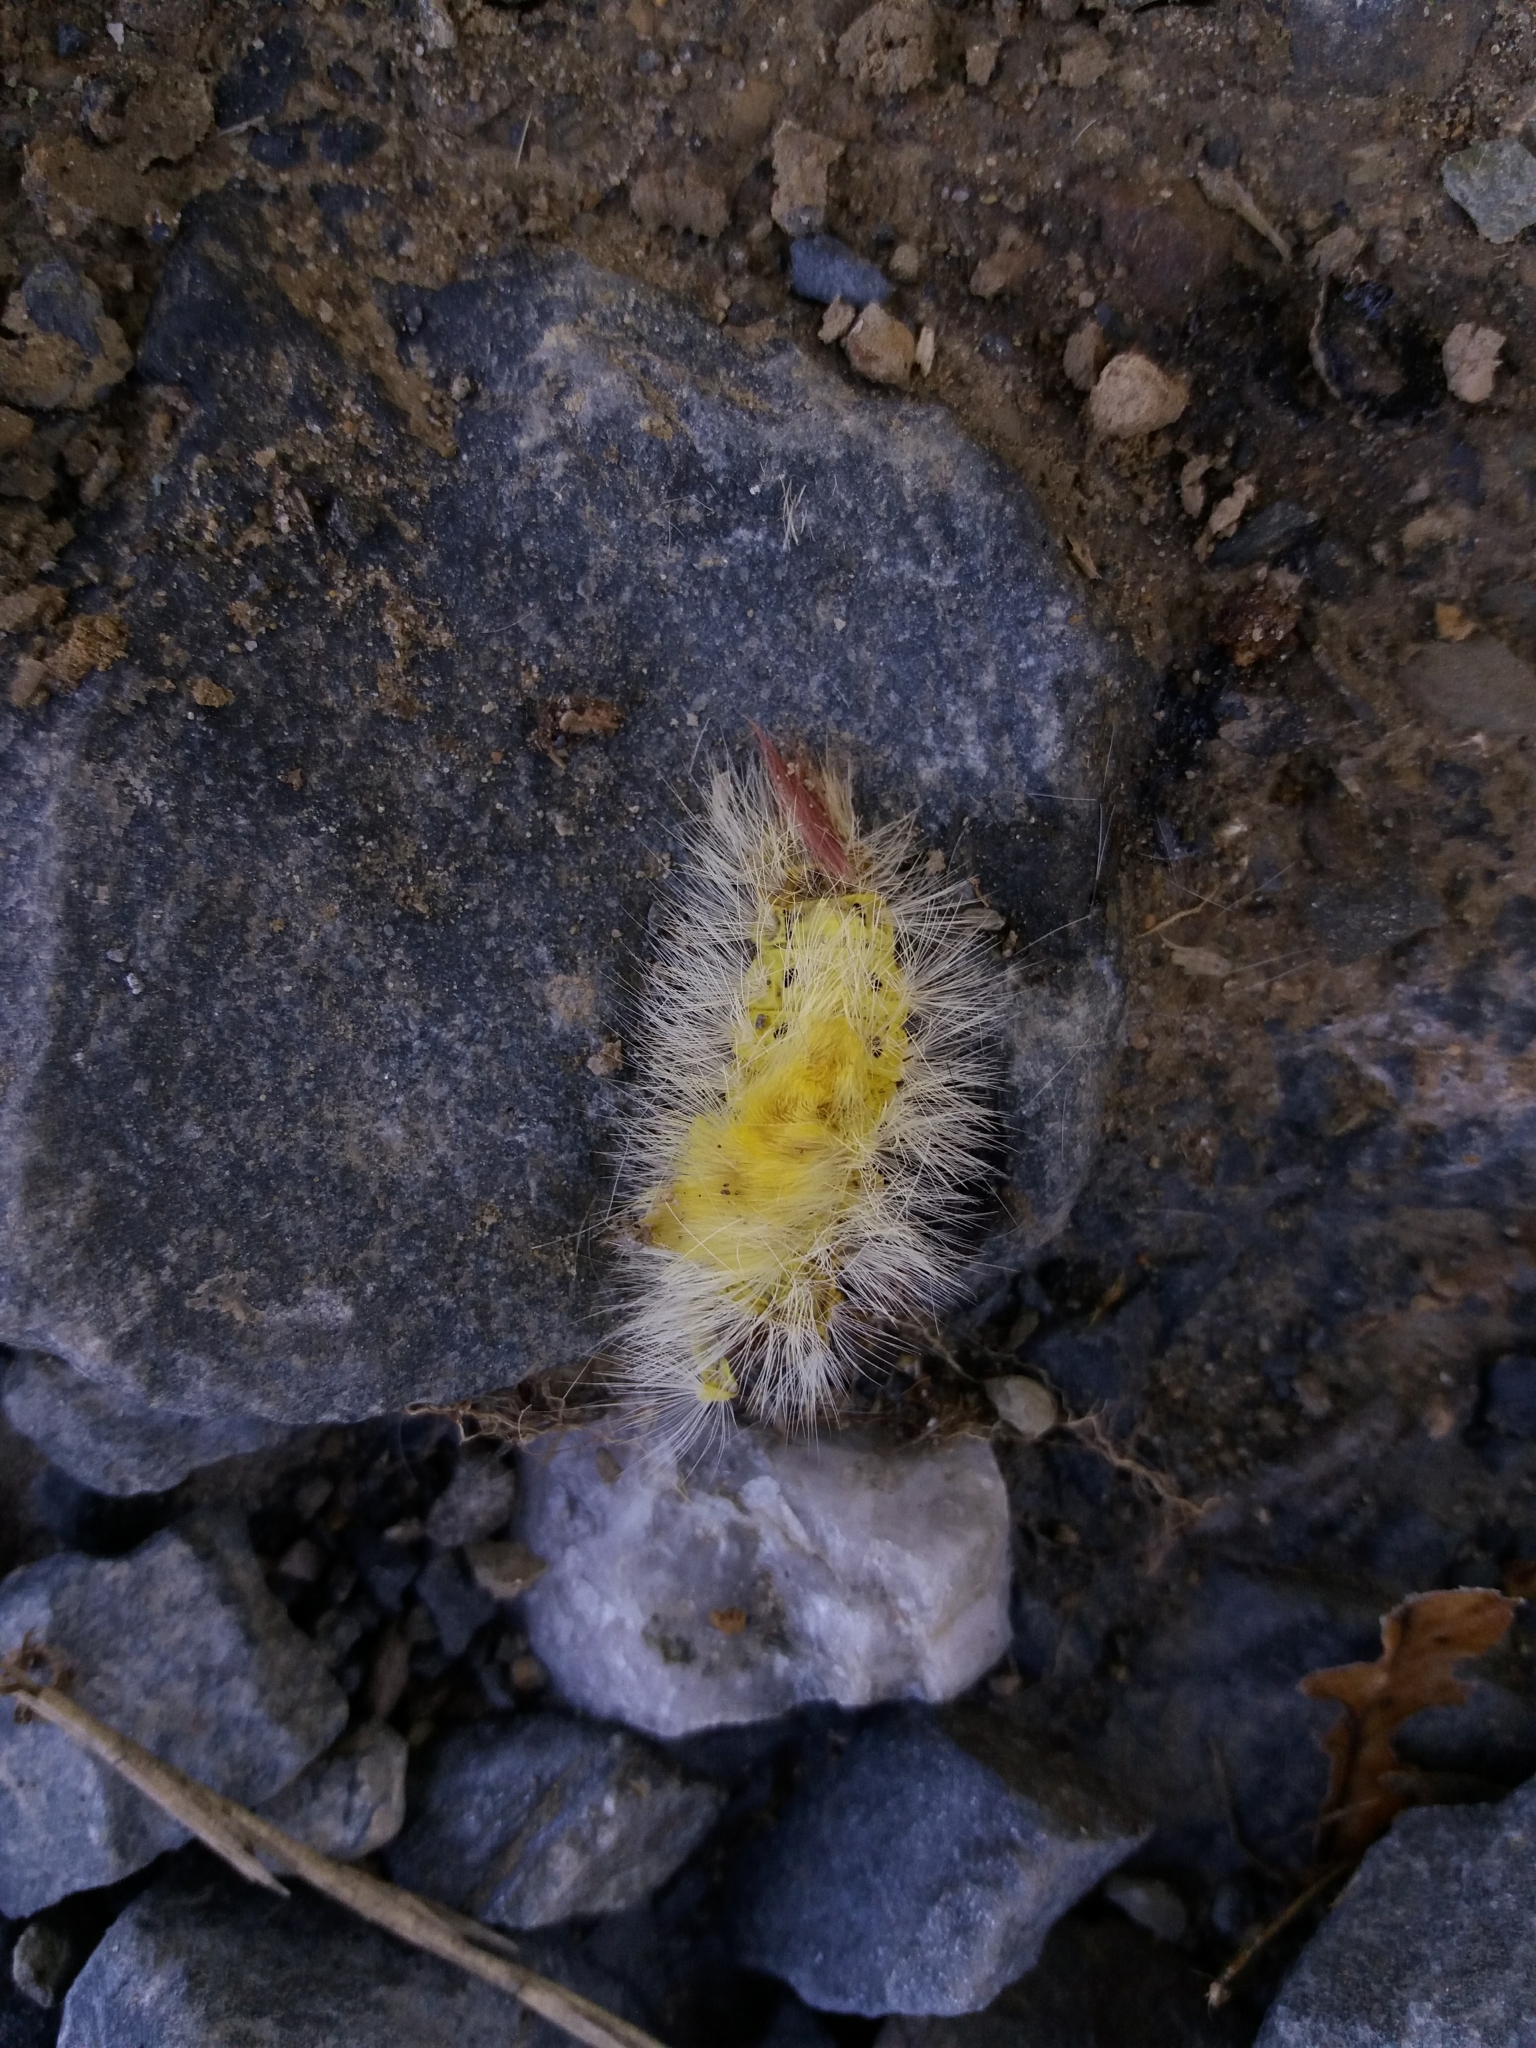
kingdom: Animalia
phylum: Arthropoda
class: Insecta
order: Lepidoptera
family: Erebidae
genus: Calliteara
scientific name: Calliteara pudibunda
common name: Pale tussock
